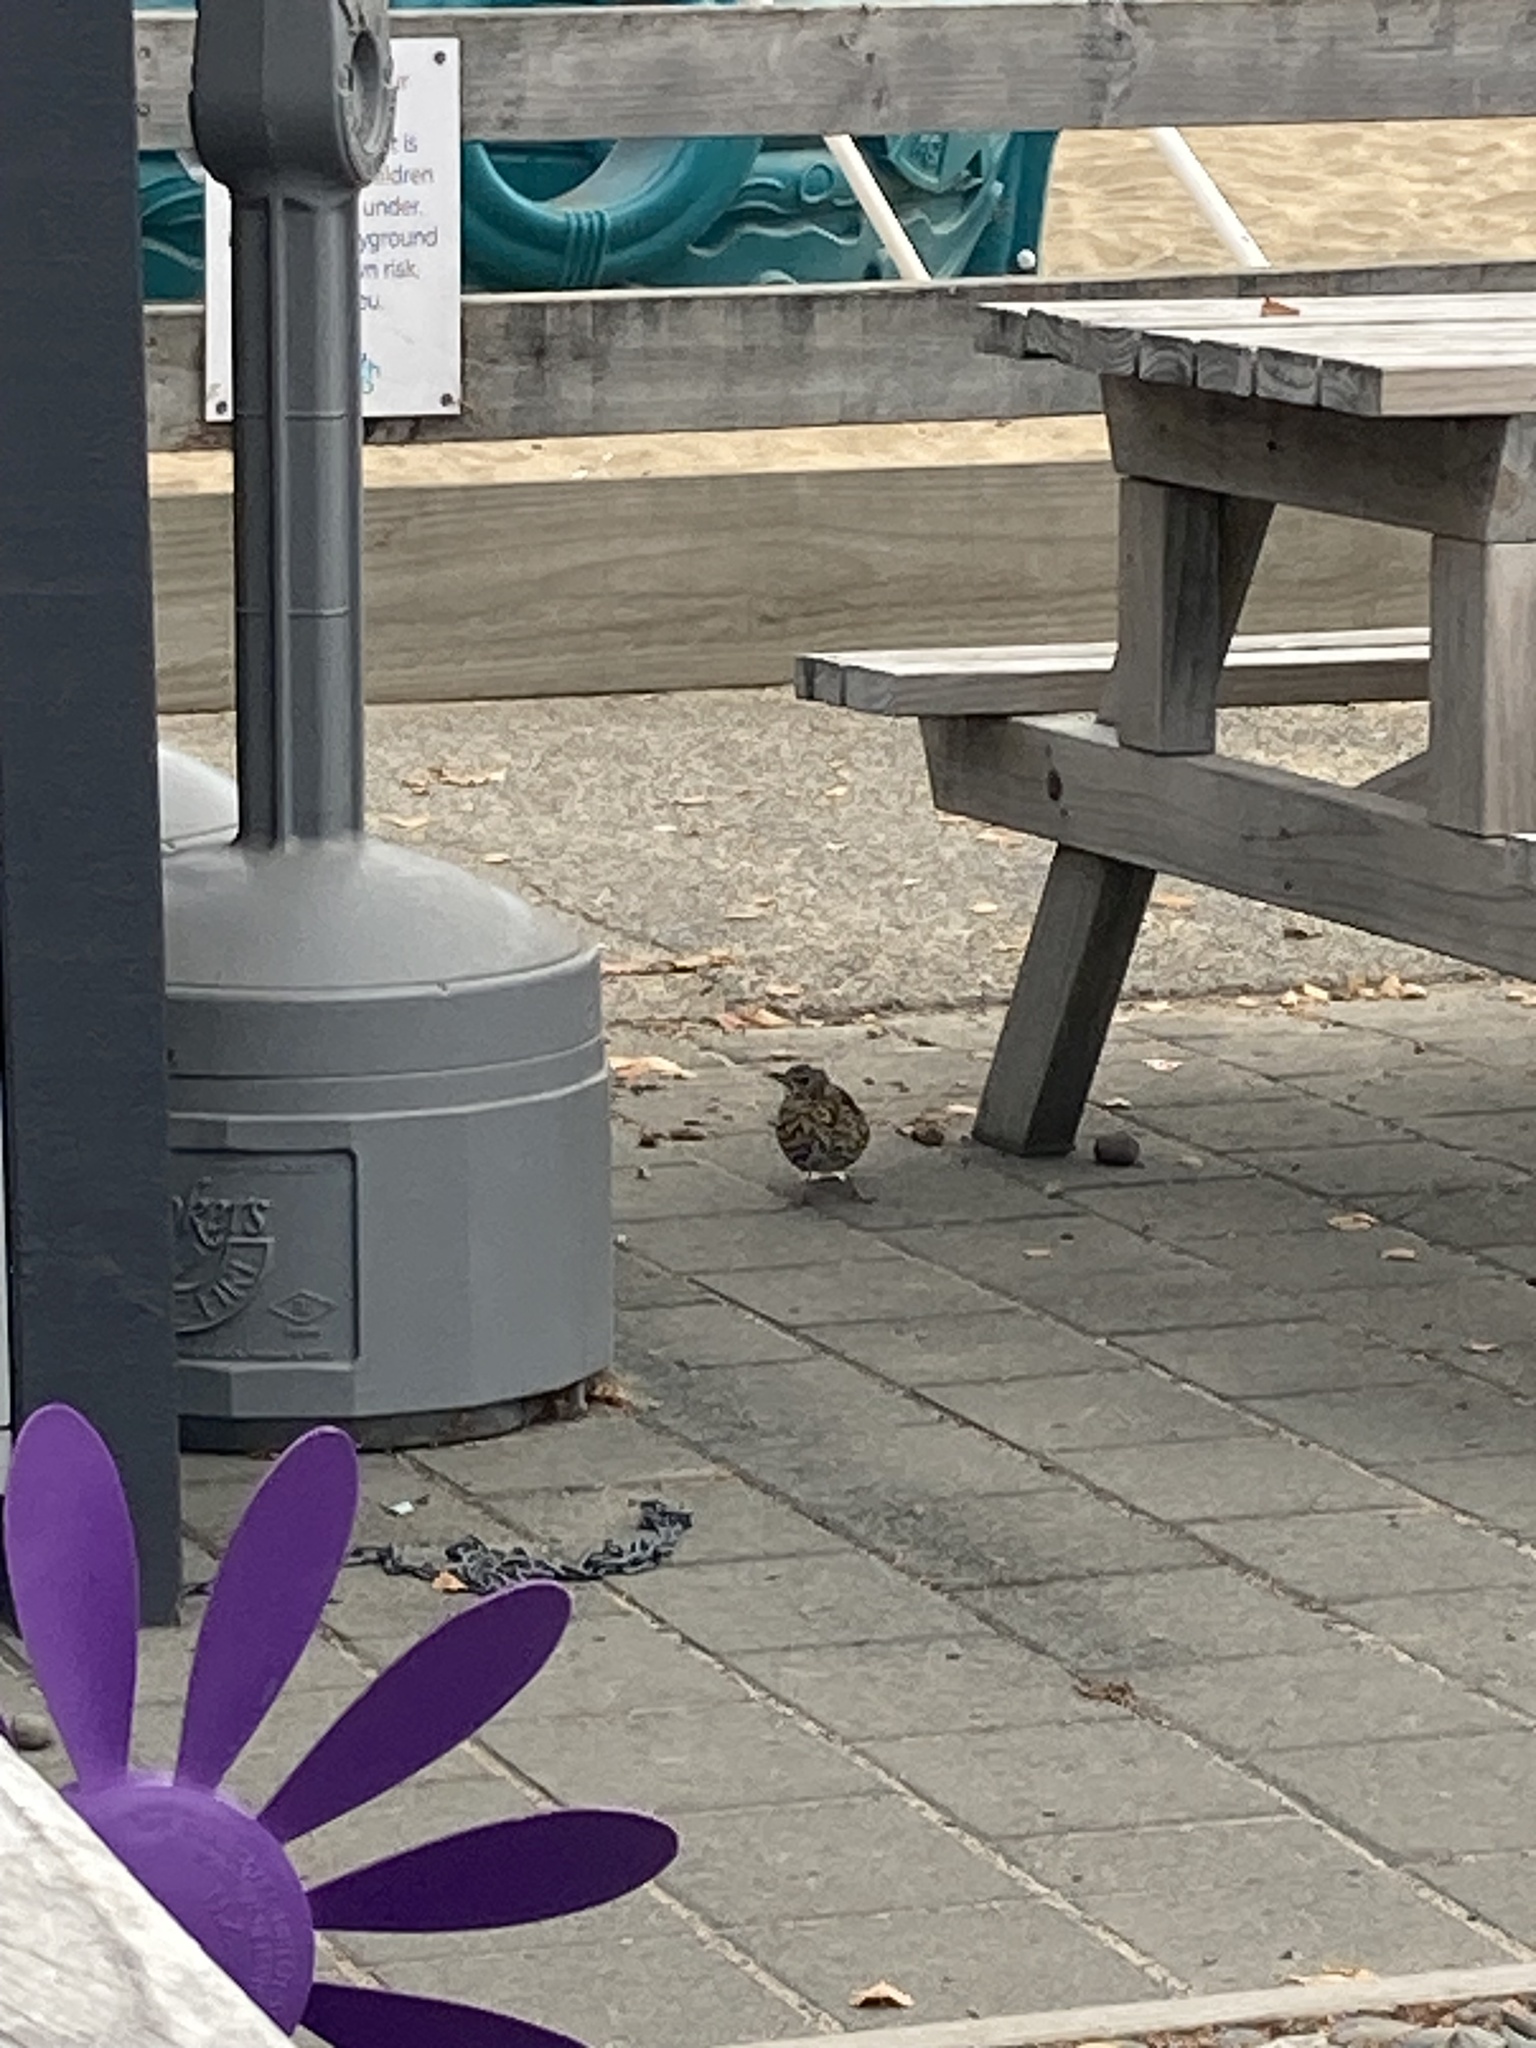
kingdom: Animalia
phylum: Chordata
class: Aves
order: Passeriformes
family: Turdidae
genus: Turdus
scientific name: Turdus philomelos
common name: Song thrush
